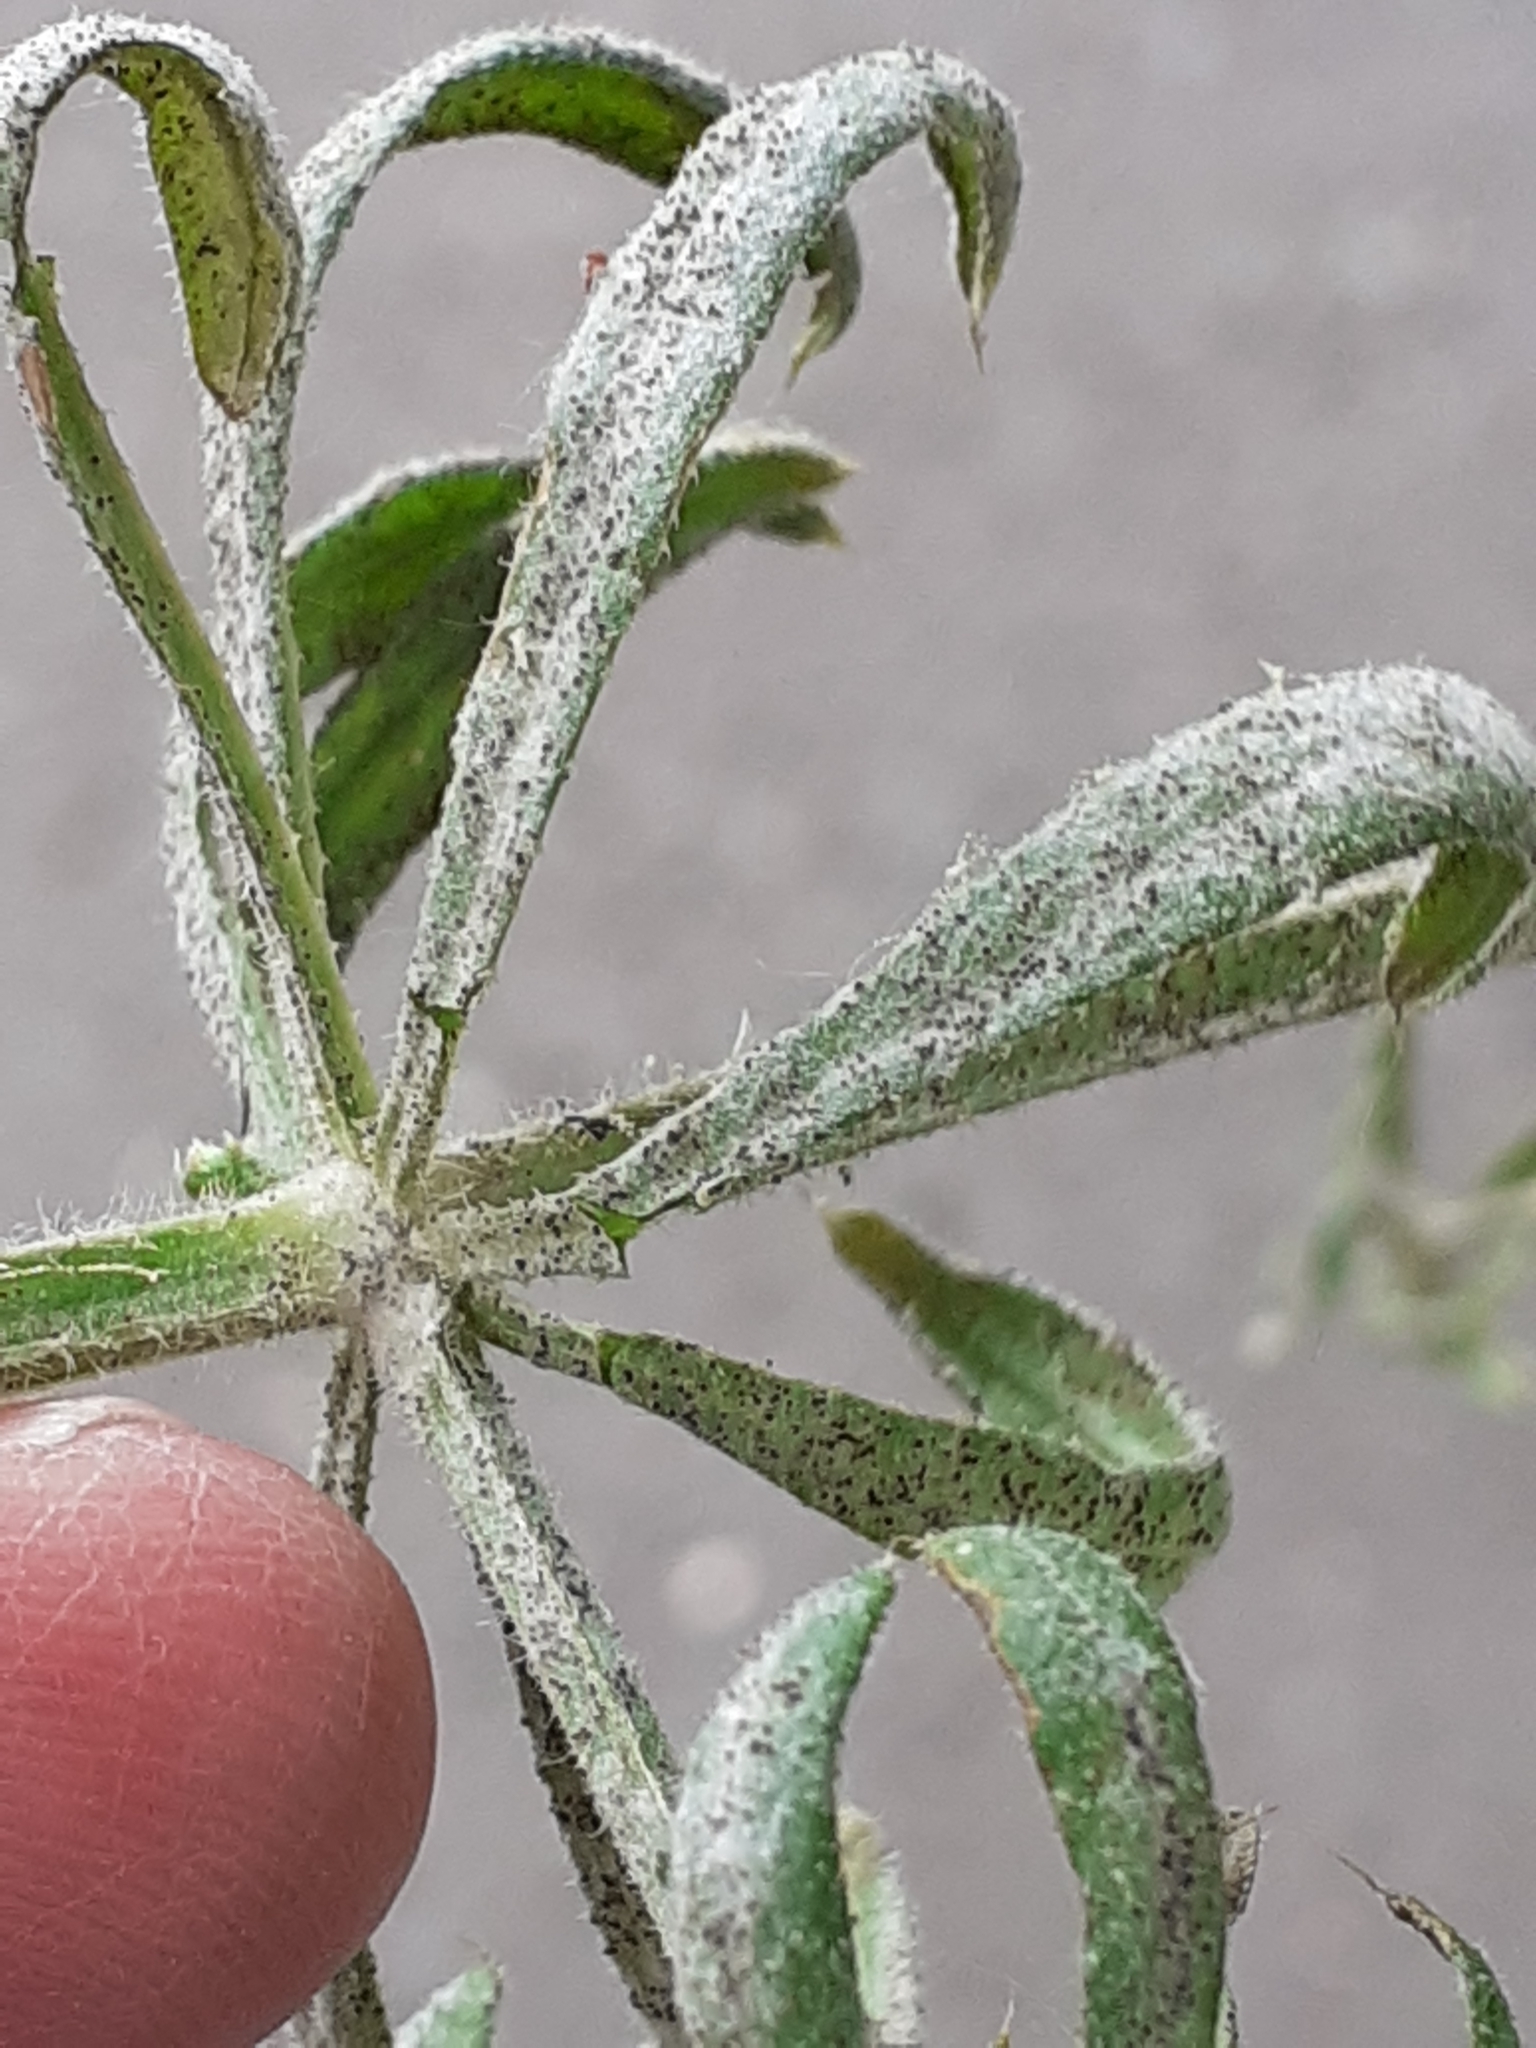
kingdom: Fungi
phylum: Ascomycota
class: Leotiomycetes
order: Helotiales
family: Erysiphaceae
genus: Neoerysiphe
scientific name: Neoerysiphe galii
